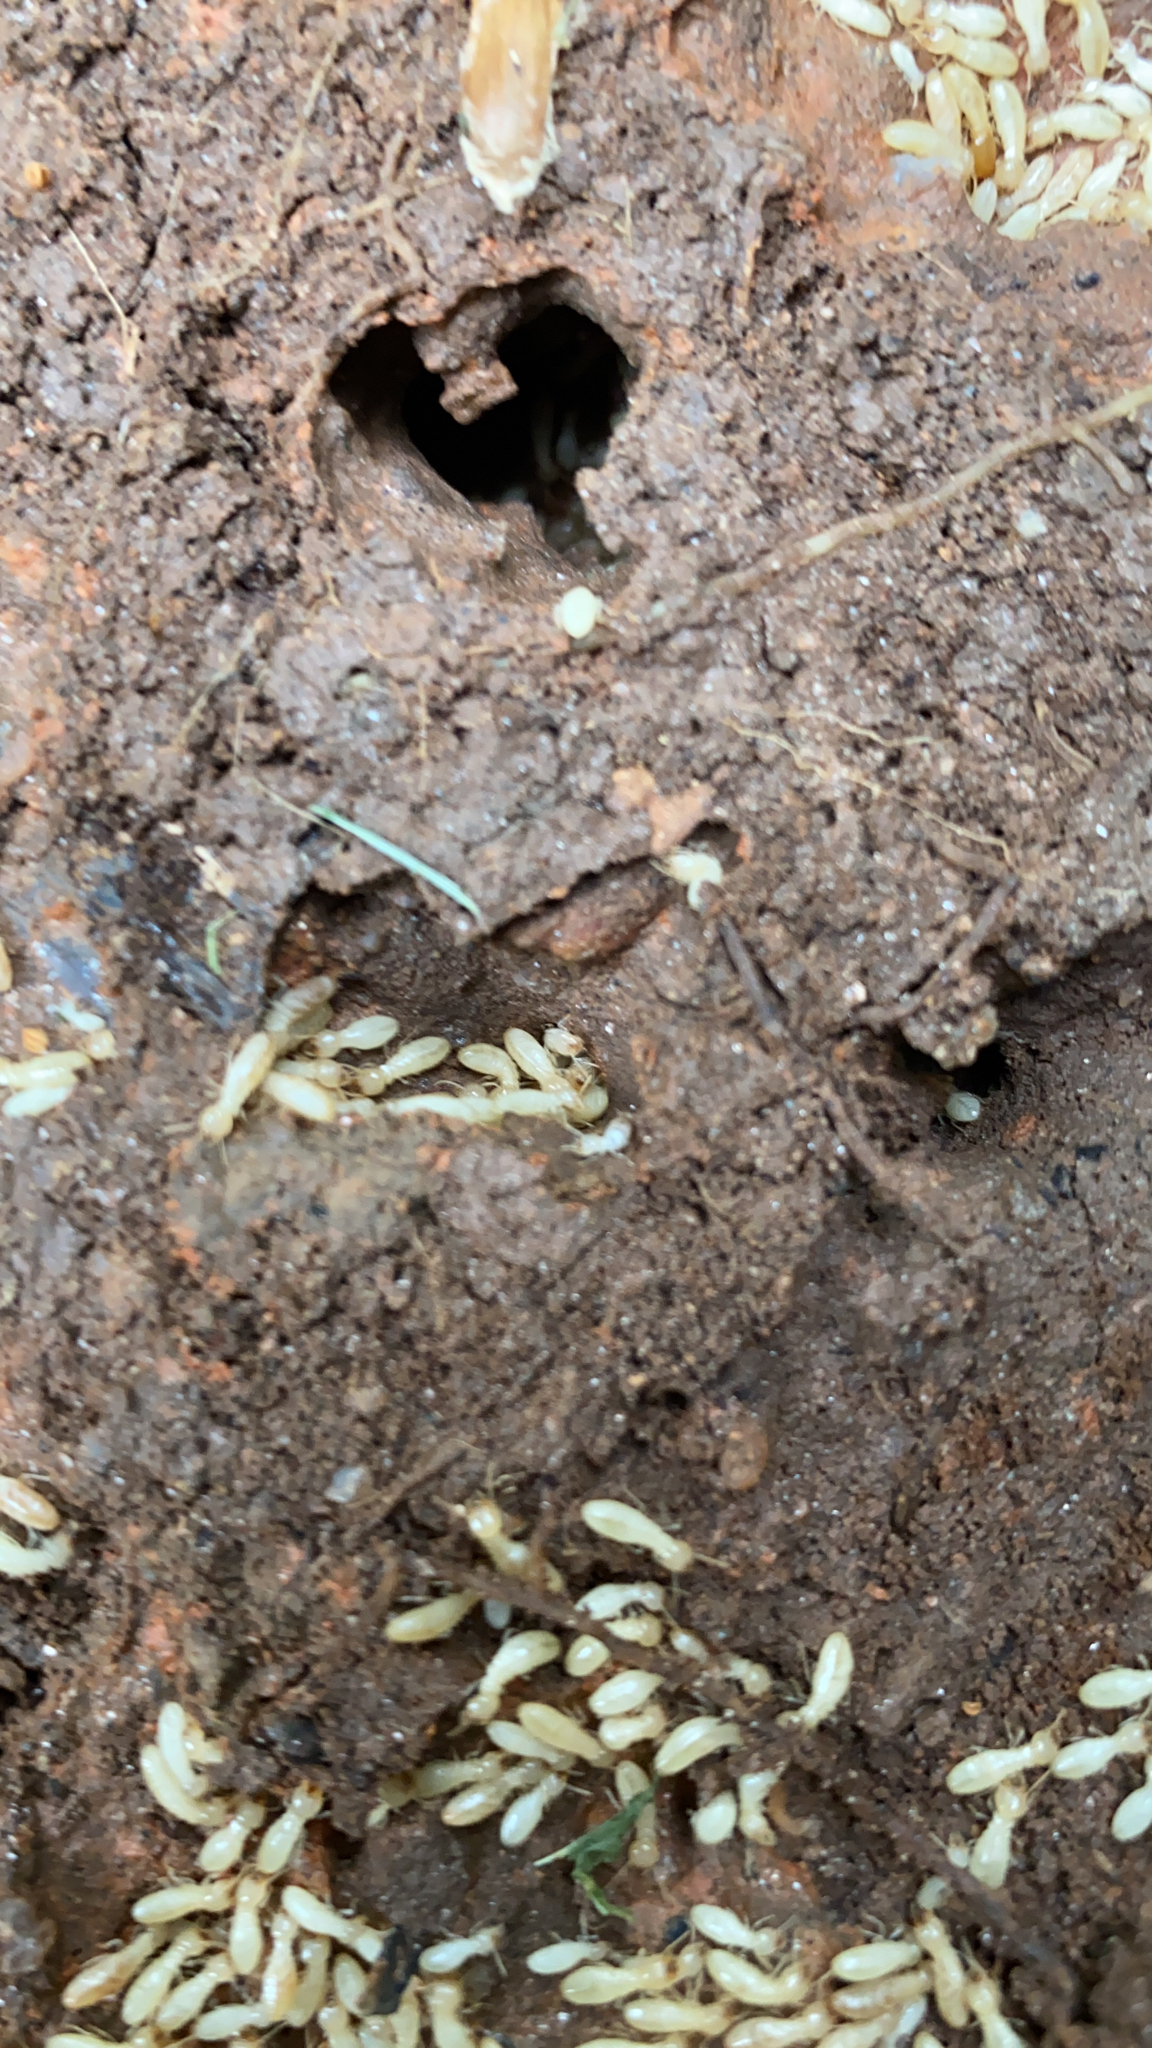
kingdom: Animalia
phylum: Arthropoda
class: Insecta
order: Blattodea
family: Rhinotermitidae
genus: Reticulitermes
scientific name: Reticulitermes flavipes
